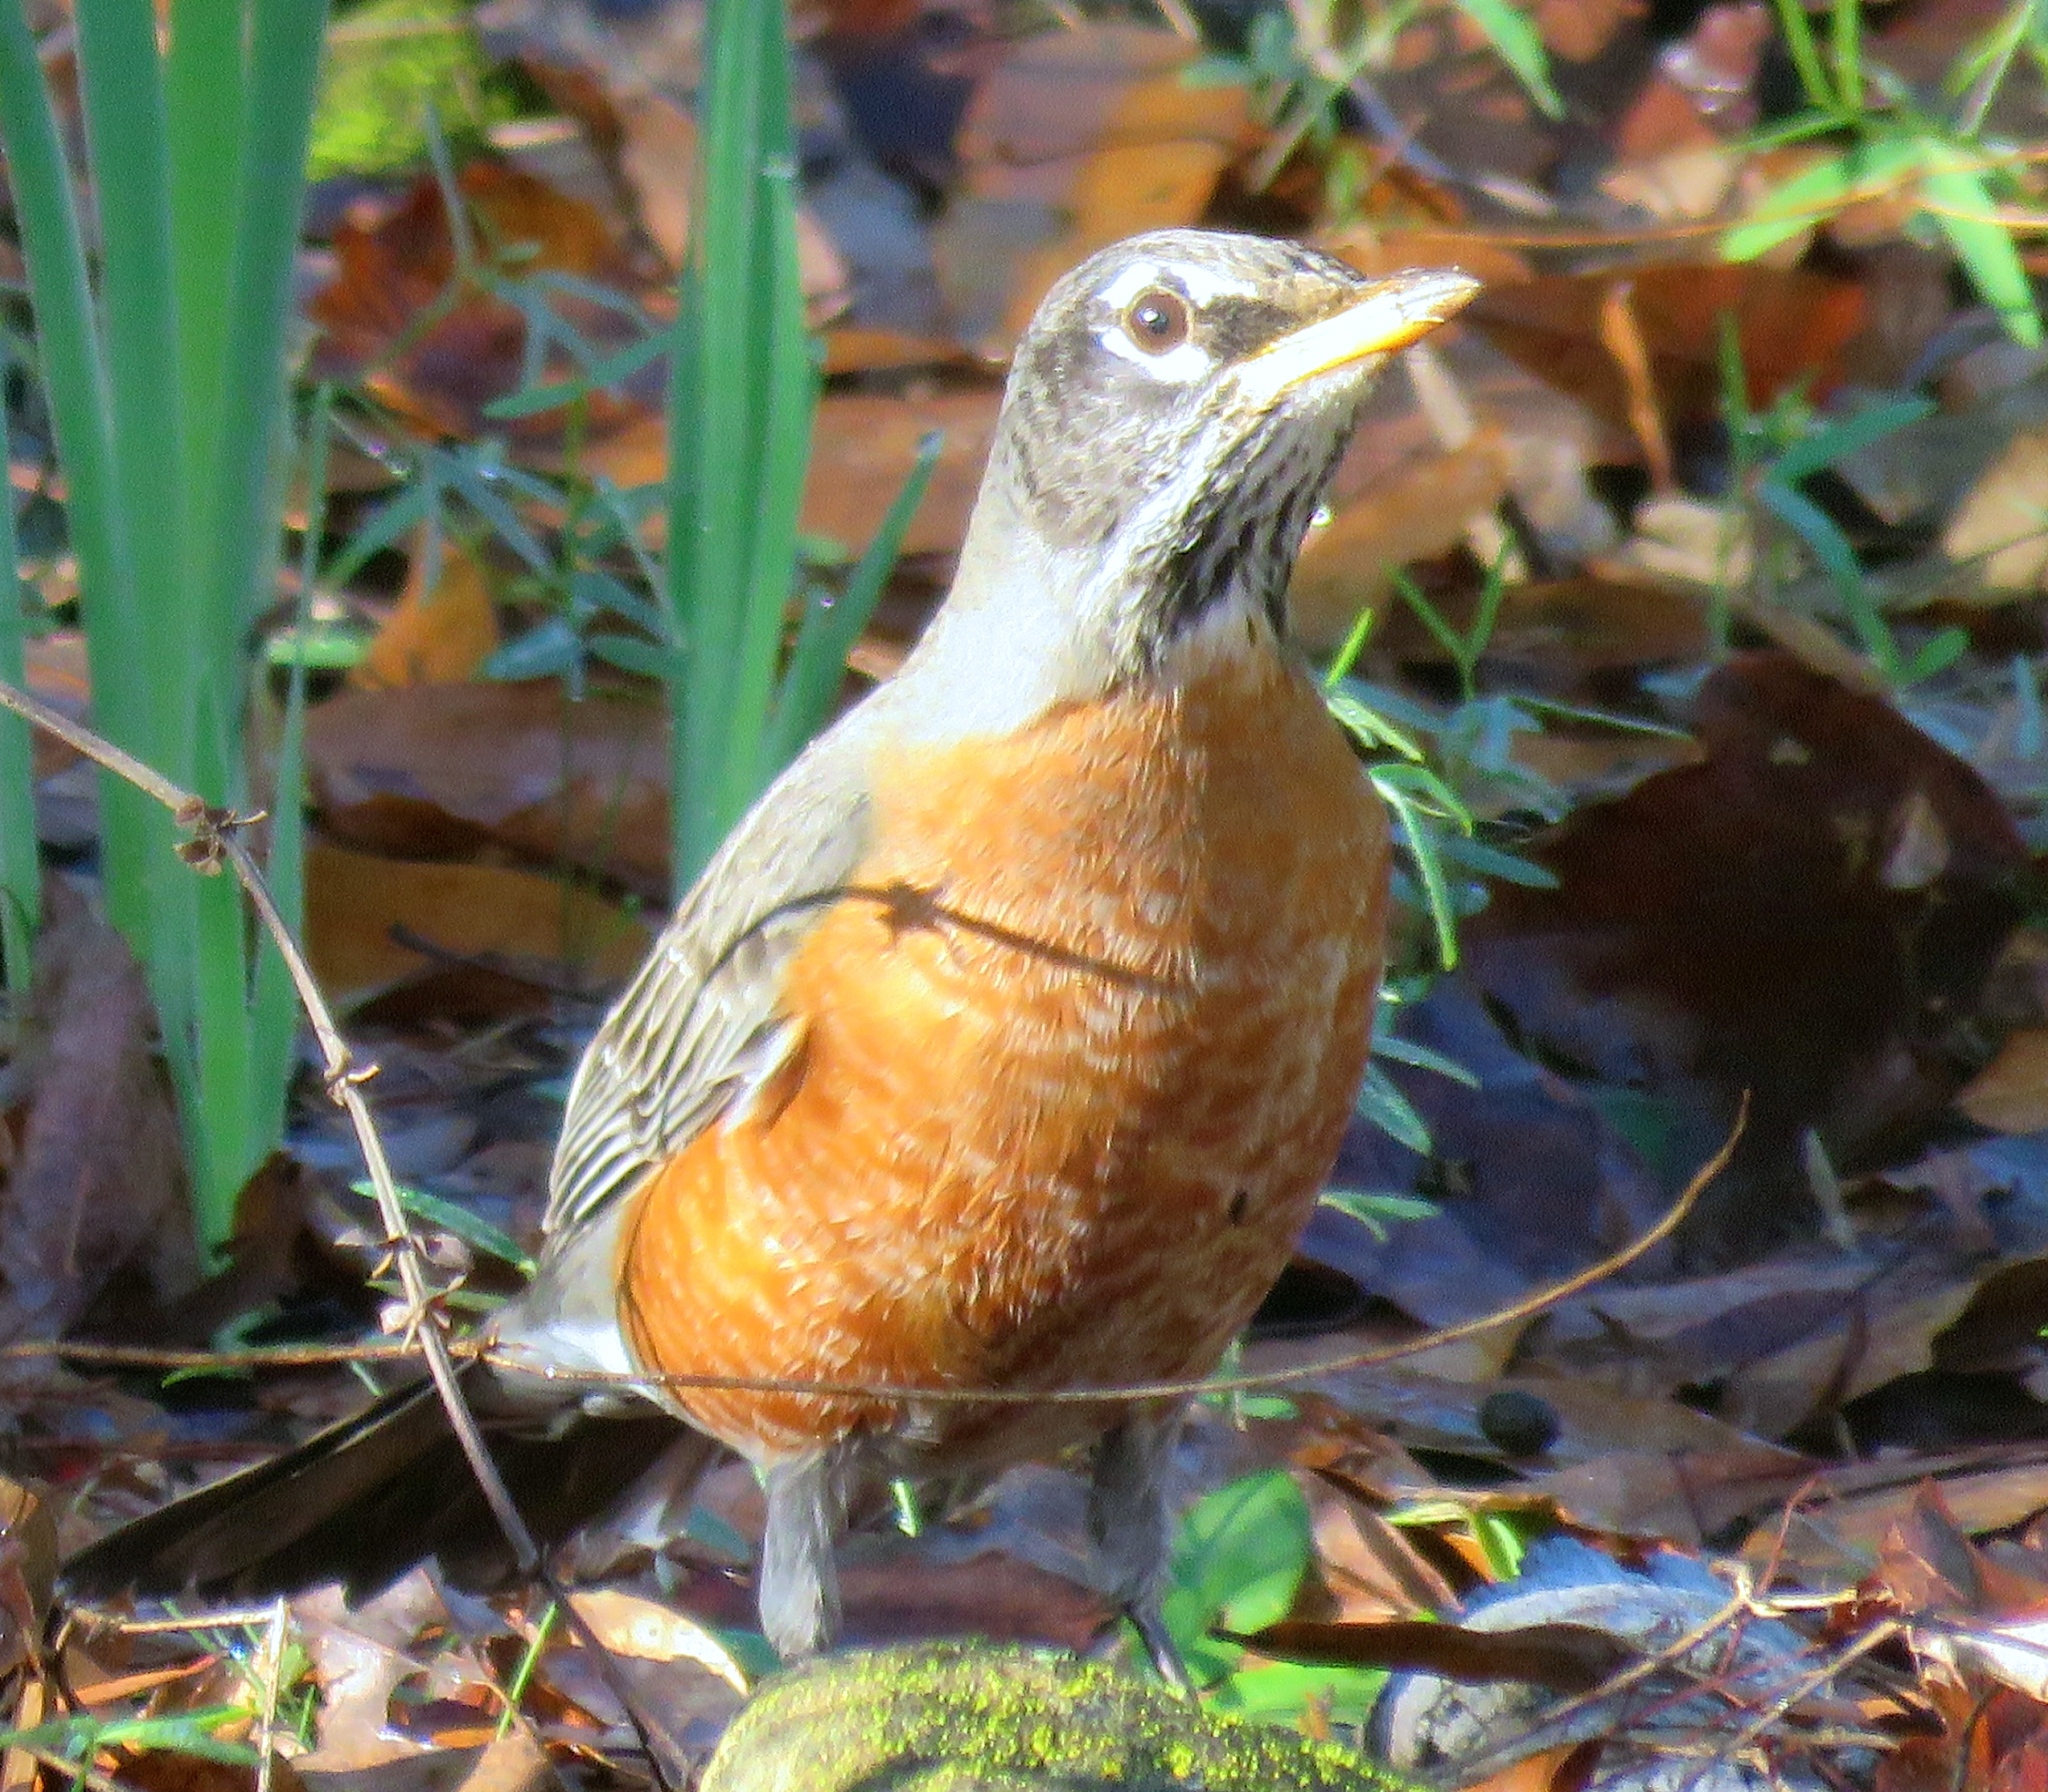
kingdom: Animalia
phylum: Chordata
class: Aves
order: Passeriformes
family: Turdidae
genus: Turdus
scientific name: Turdus migratorius
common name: American robin
